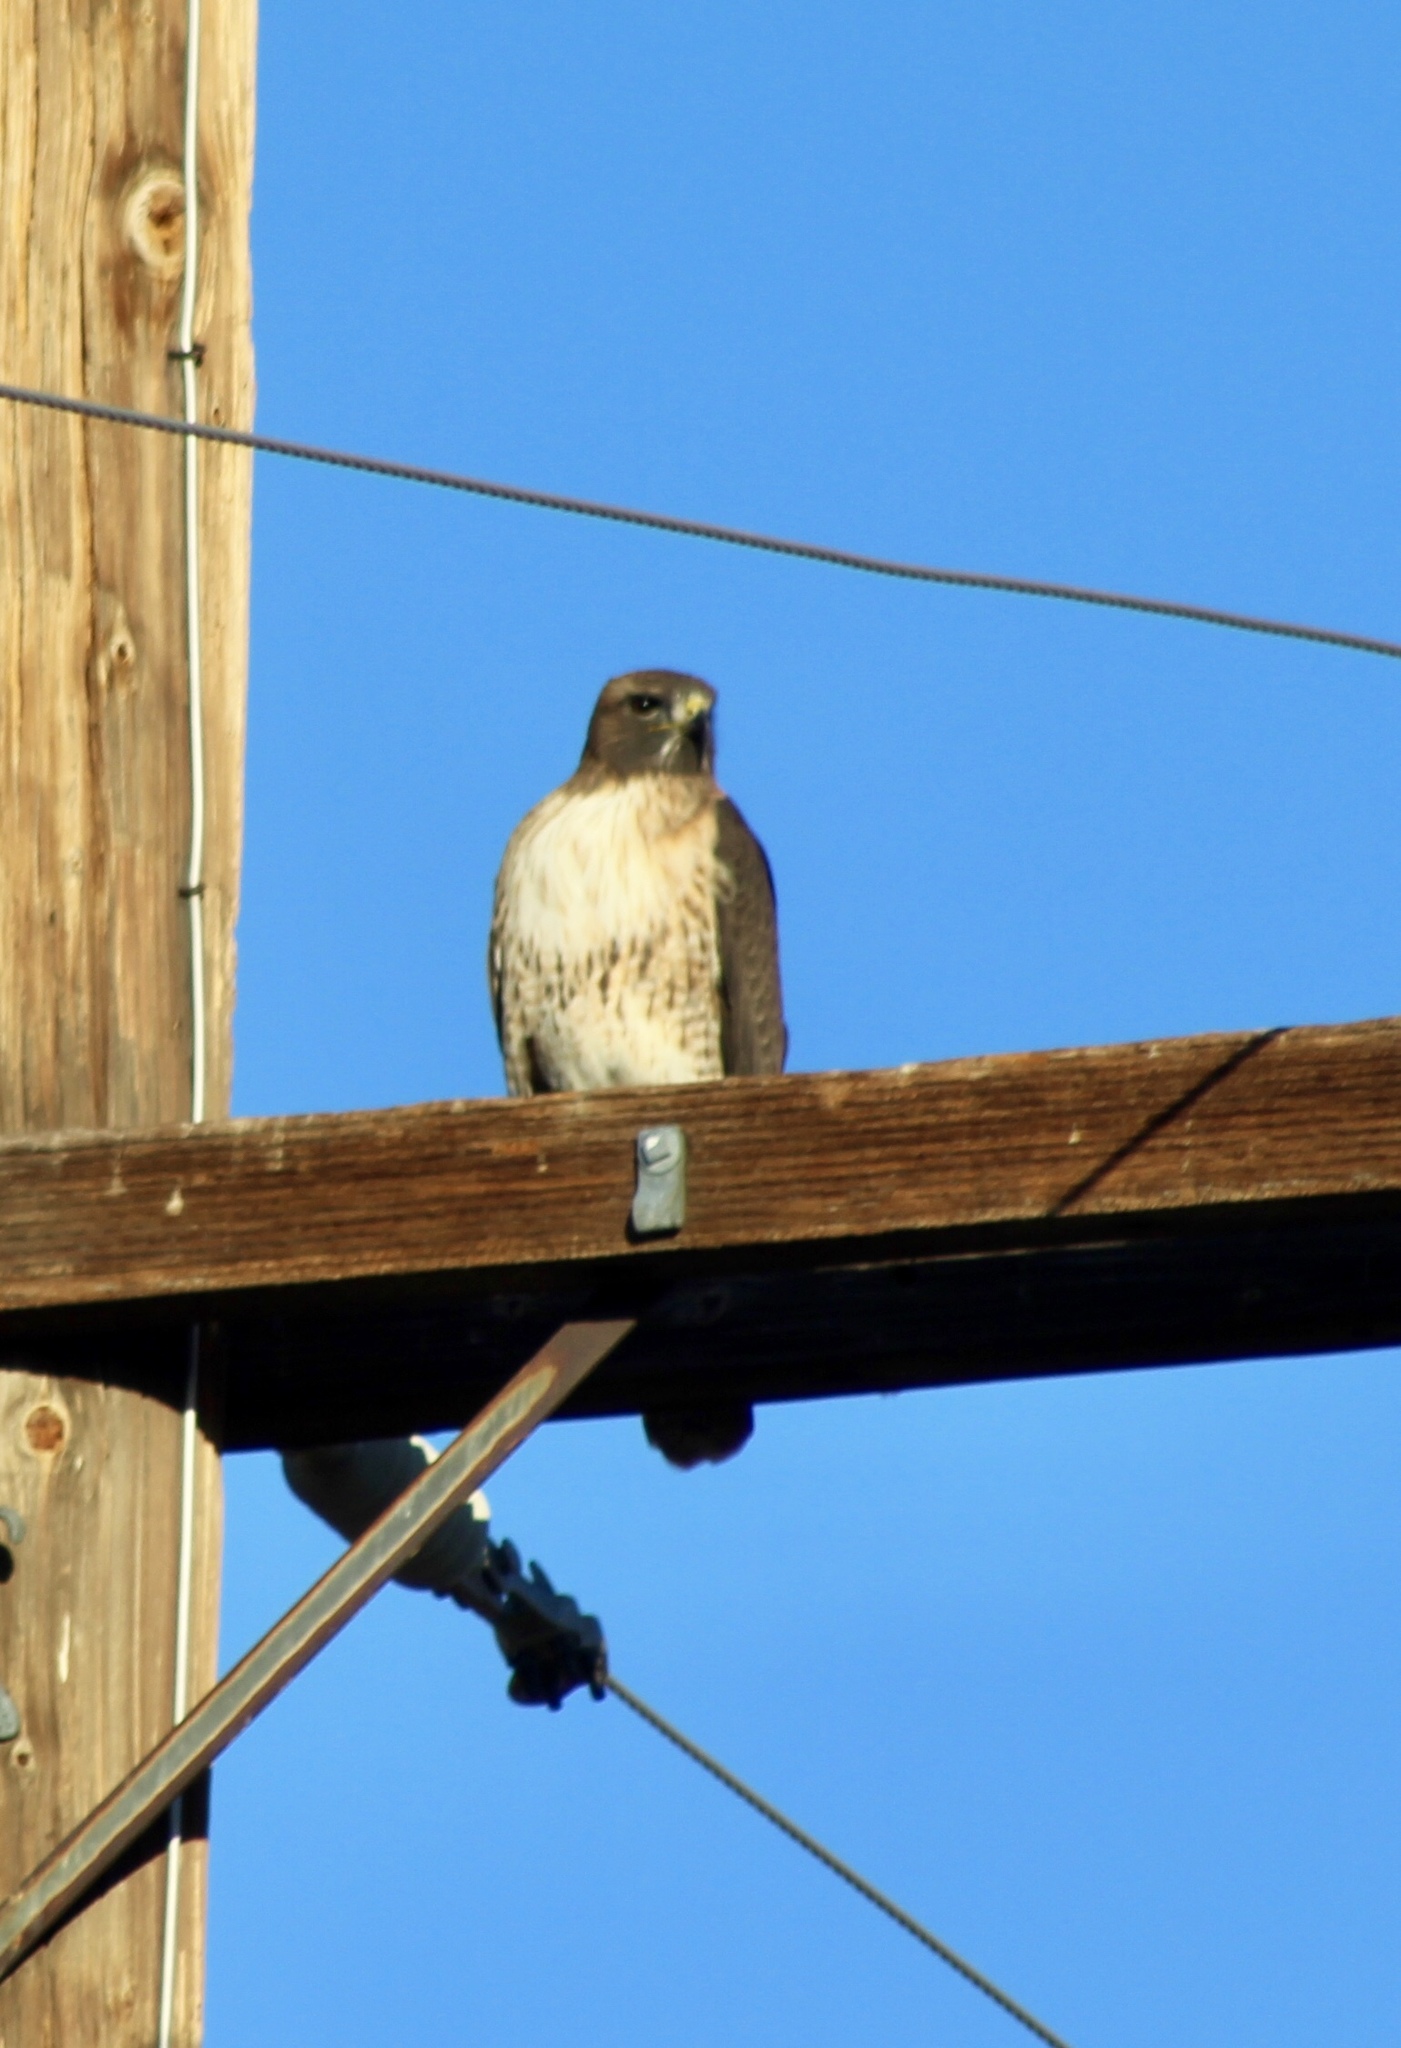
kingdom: Animalia
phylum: Chordata
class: Aves
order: Accipitriformes
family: Accipitridae
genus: Buteo
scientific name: Buteo jamaicensis
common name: Red-tailed hawk
